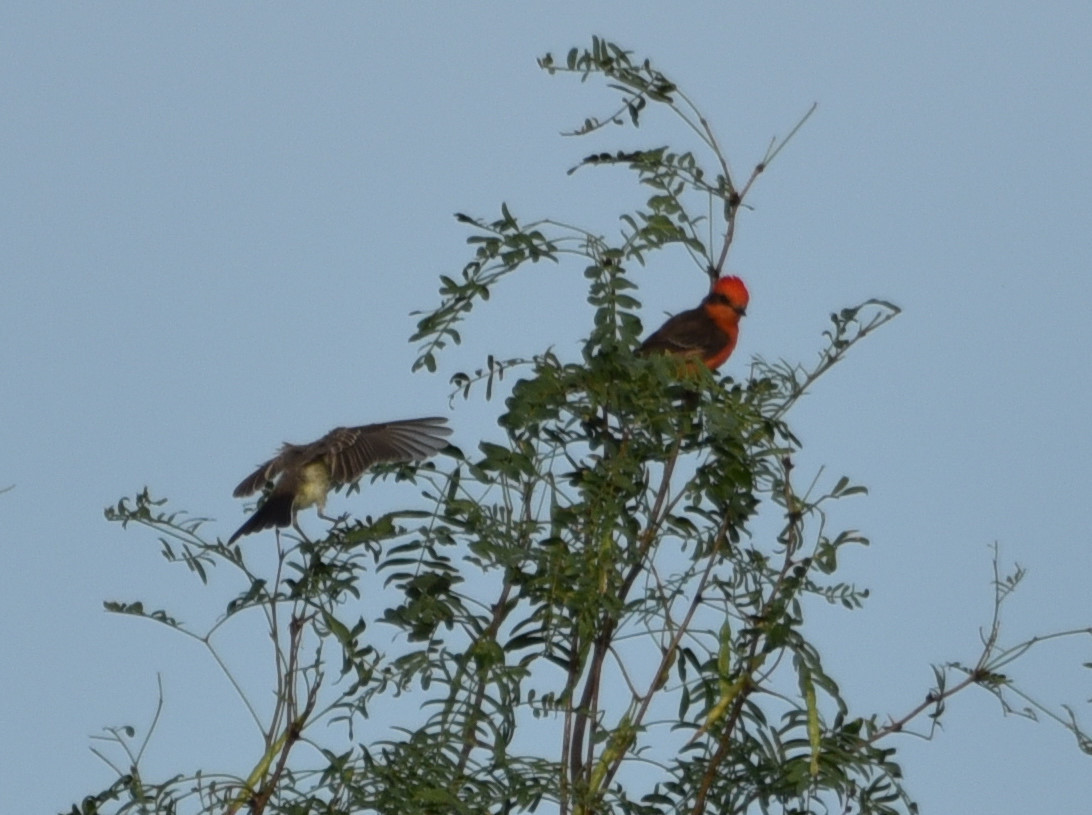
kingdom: Animalia
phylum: Chordata
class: Aves
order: Passeriformes
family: Tyrannidae
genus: Pyrocephalus
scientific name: Pyrocephalus rubinus
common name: Vermilion flycatcher
